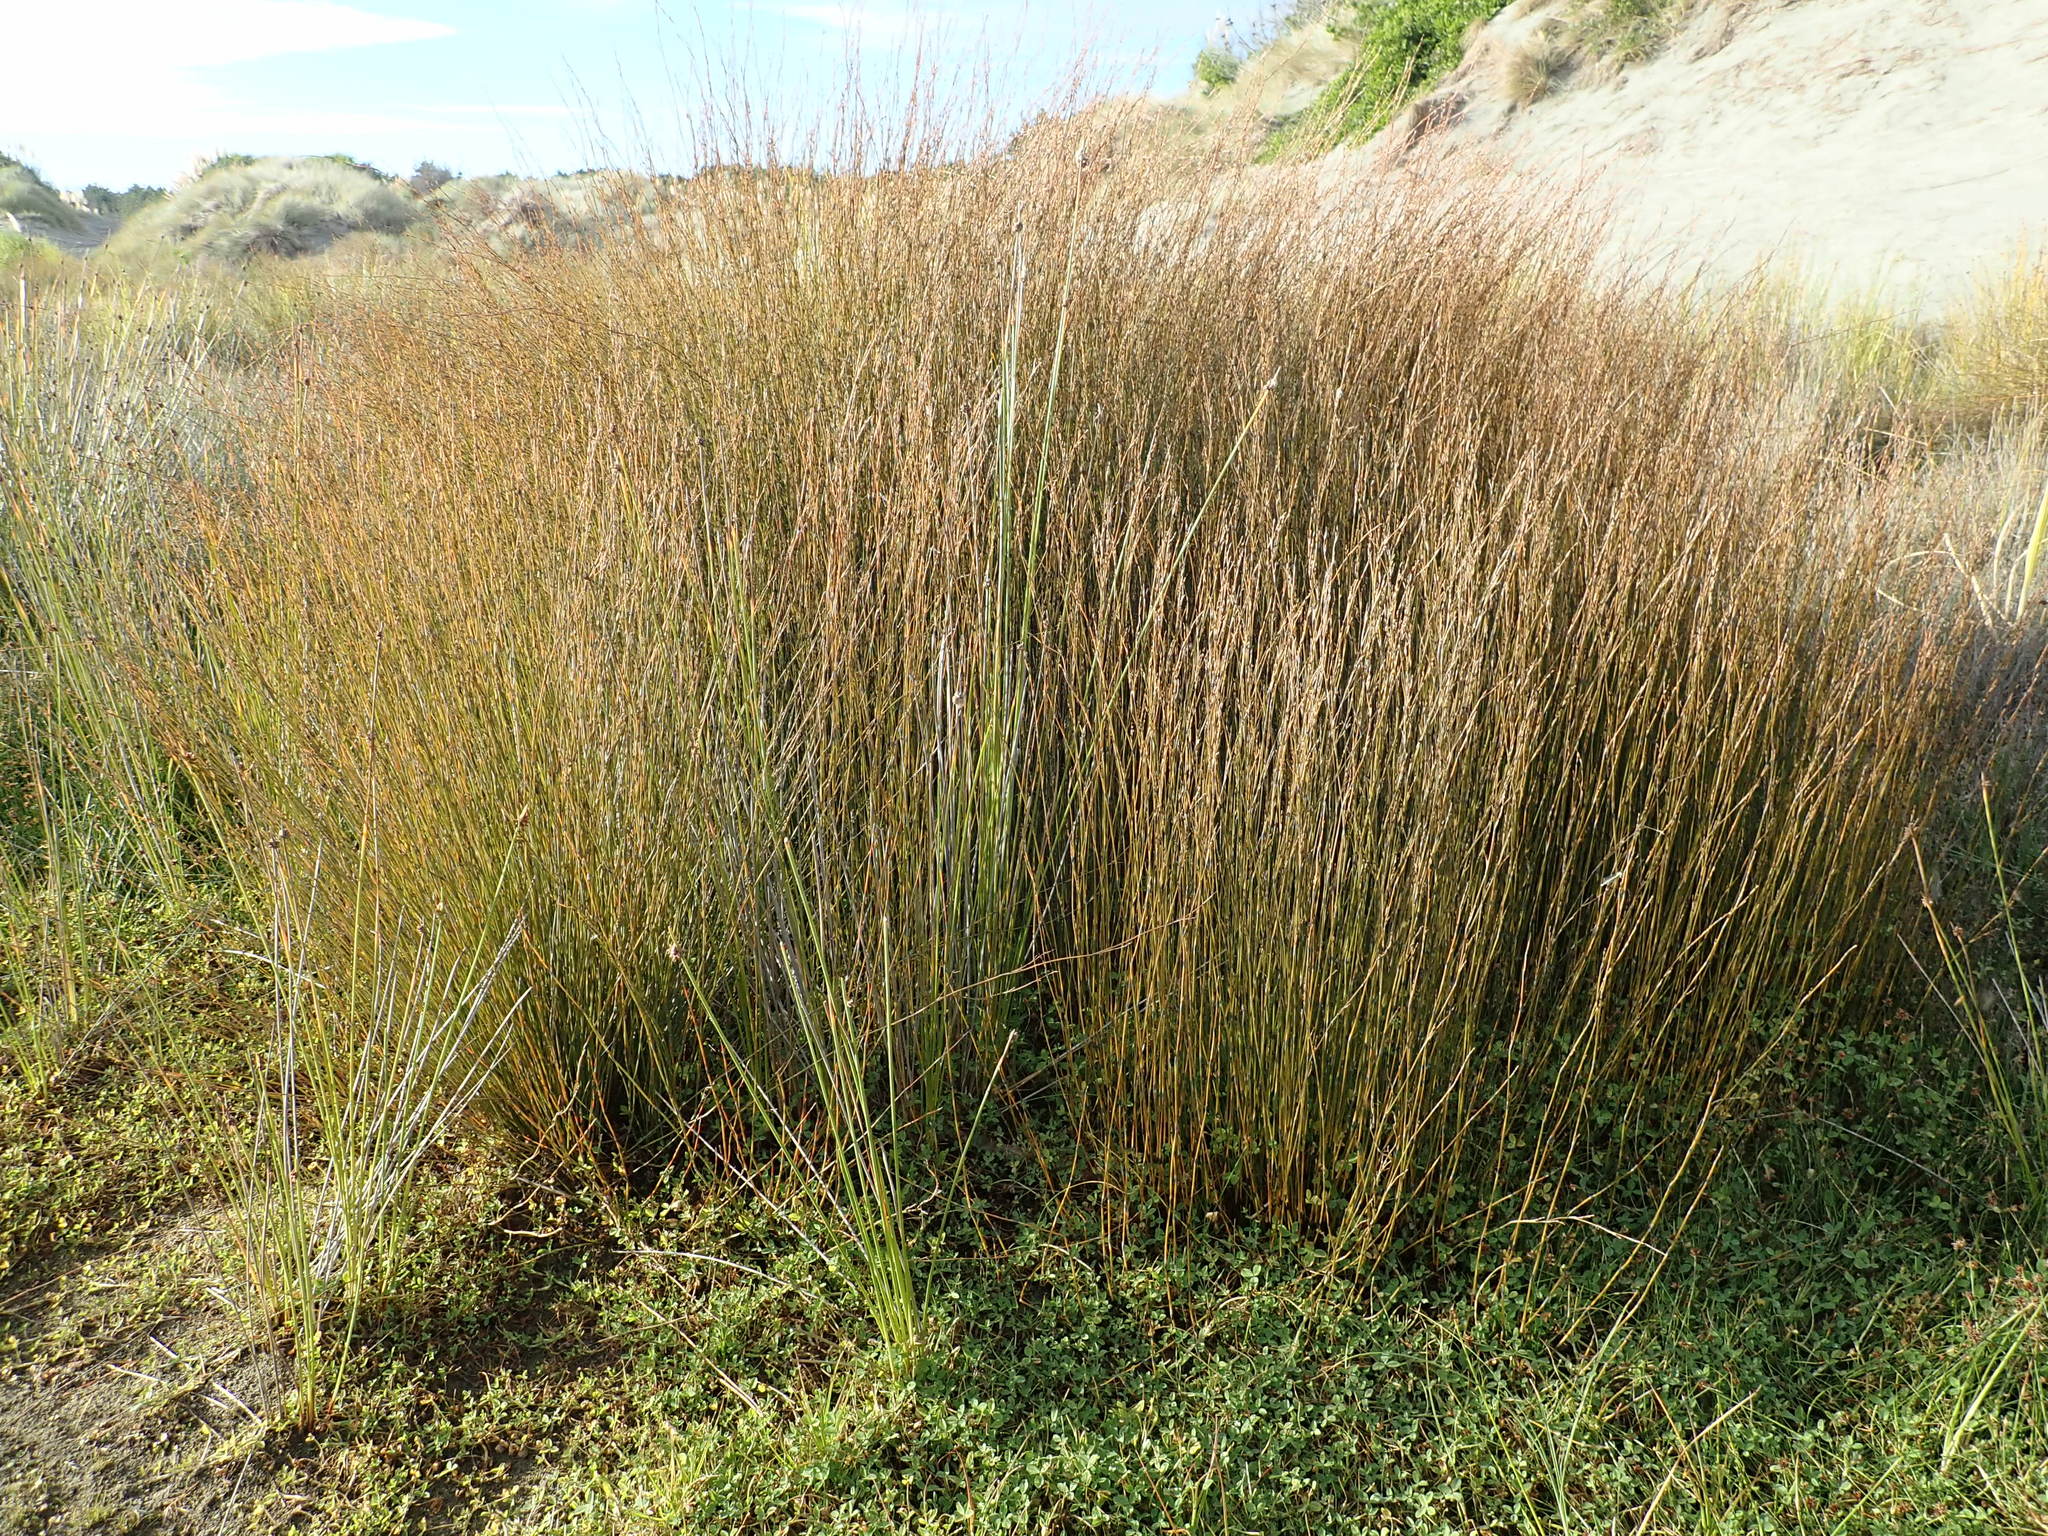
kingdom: Plantae
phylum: Tracheophyta
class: Liliopsida
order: Poales
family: Restionaceae
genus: Apodasmia
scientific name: Apodasmia similis
